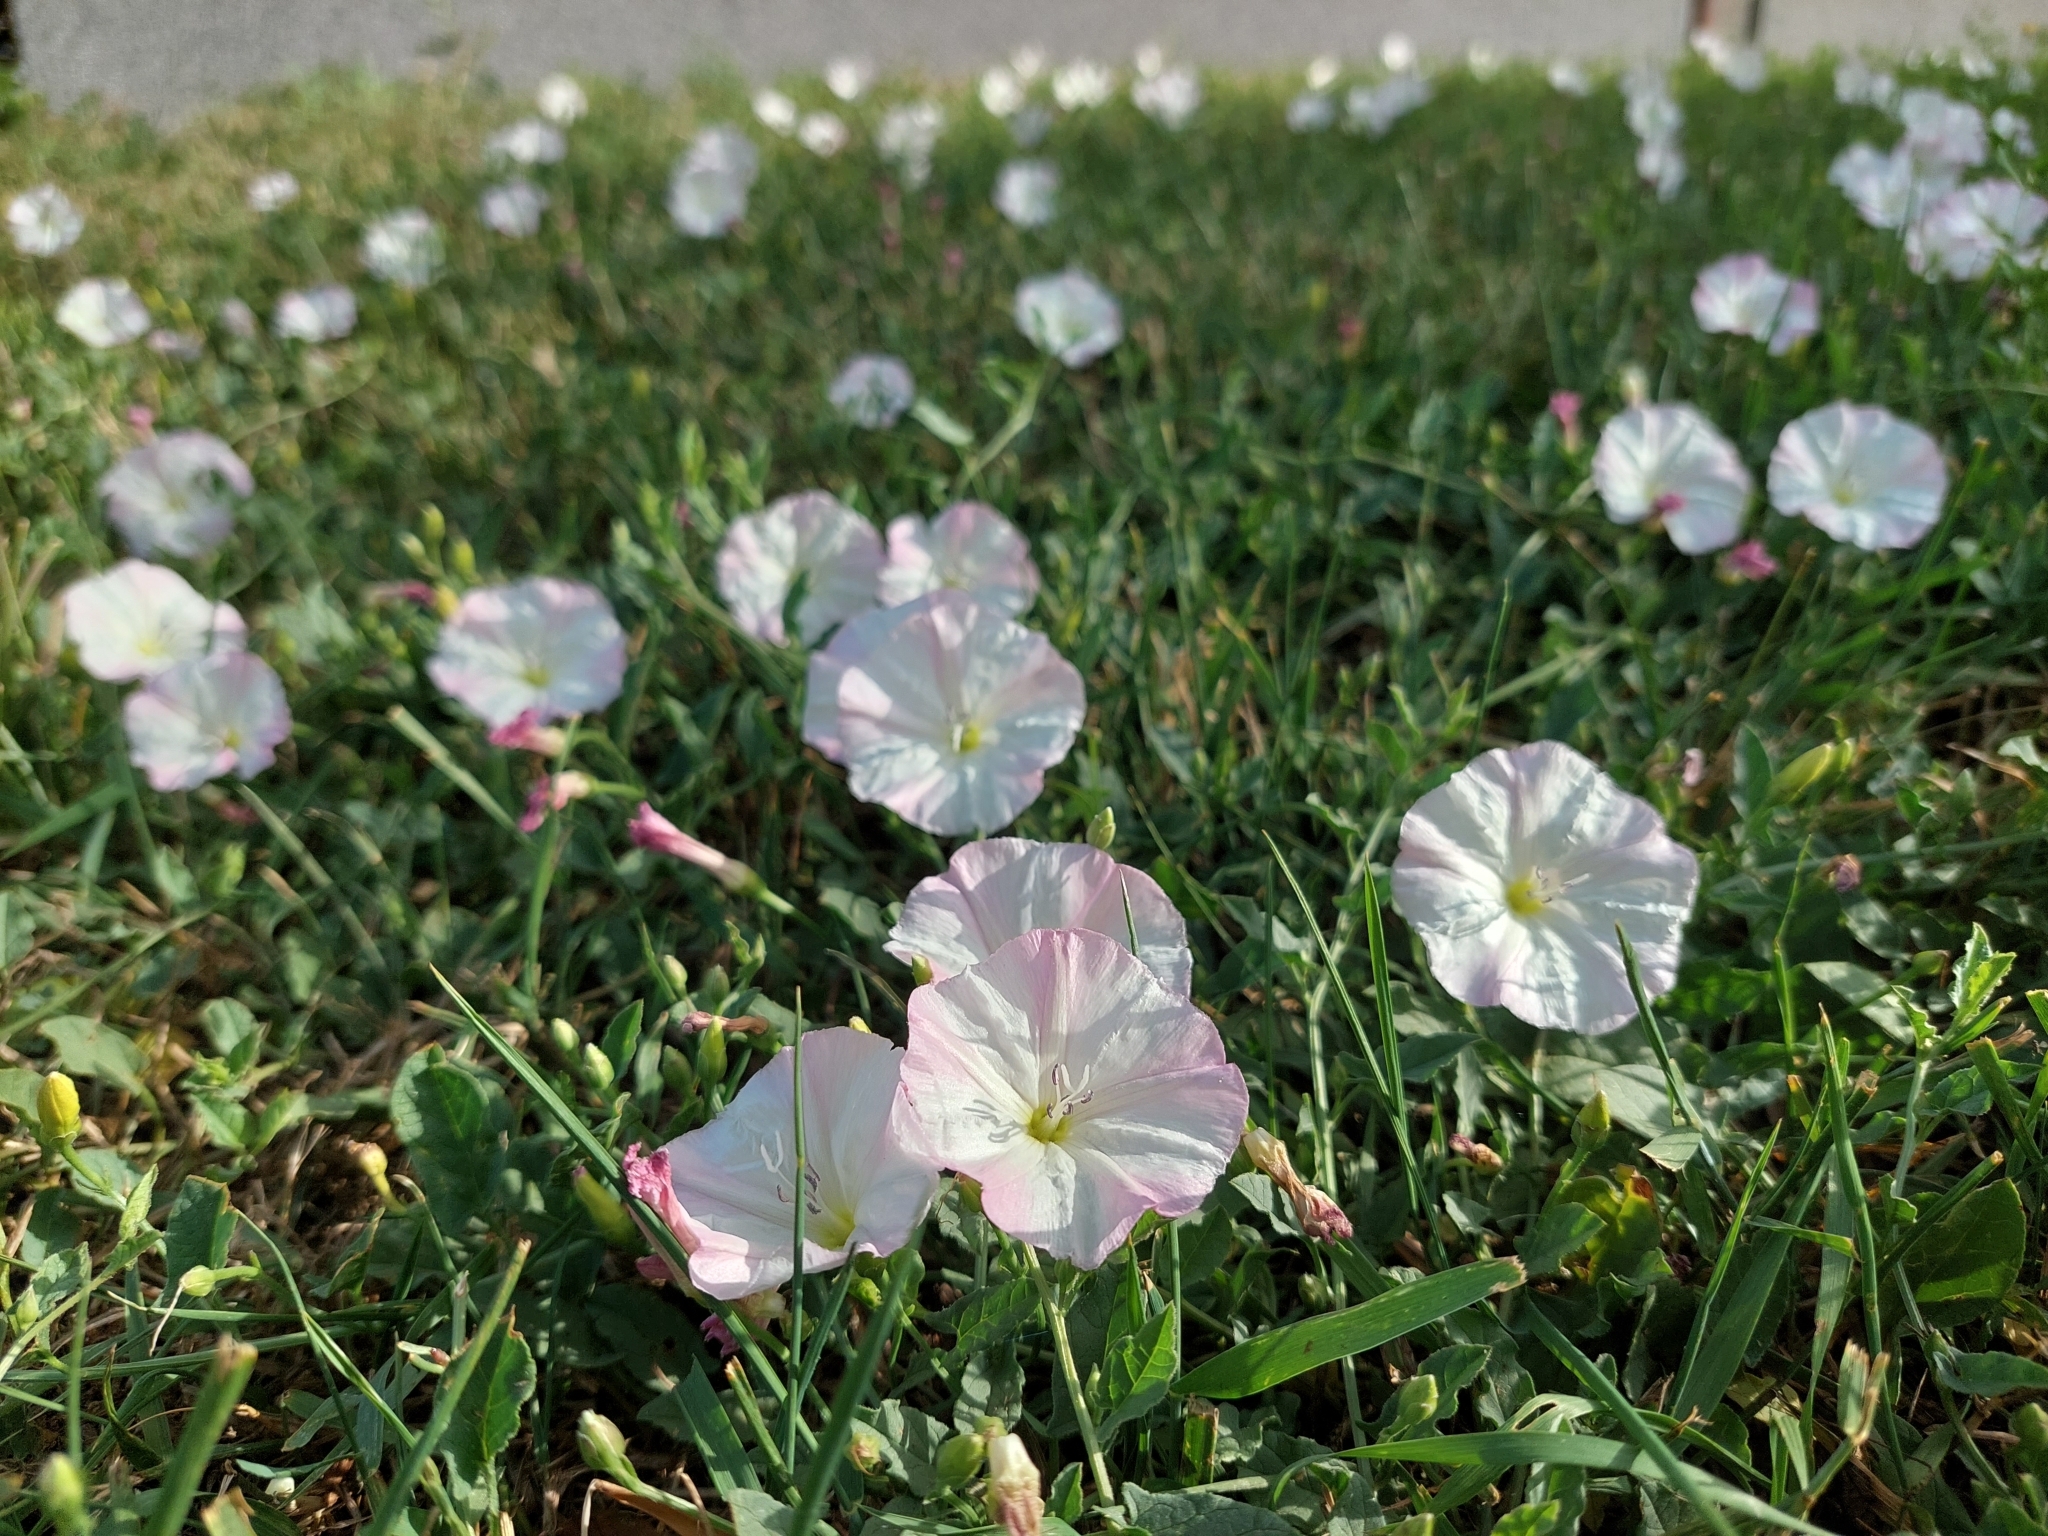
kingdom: Plantae
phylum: Tracheophyta
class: Magnoliopsida
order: Solanales
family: Convolvulaceae
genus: Convolvulus
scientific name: Convolvulus arvensis
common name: Field bindweed
